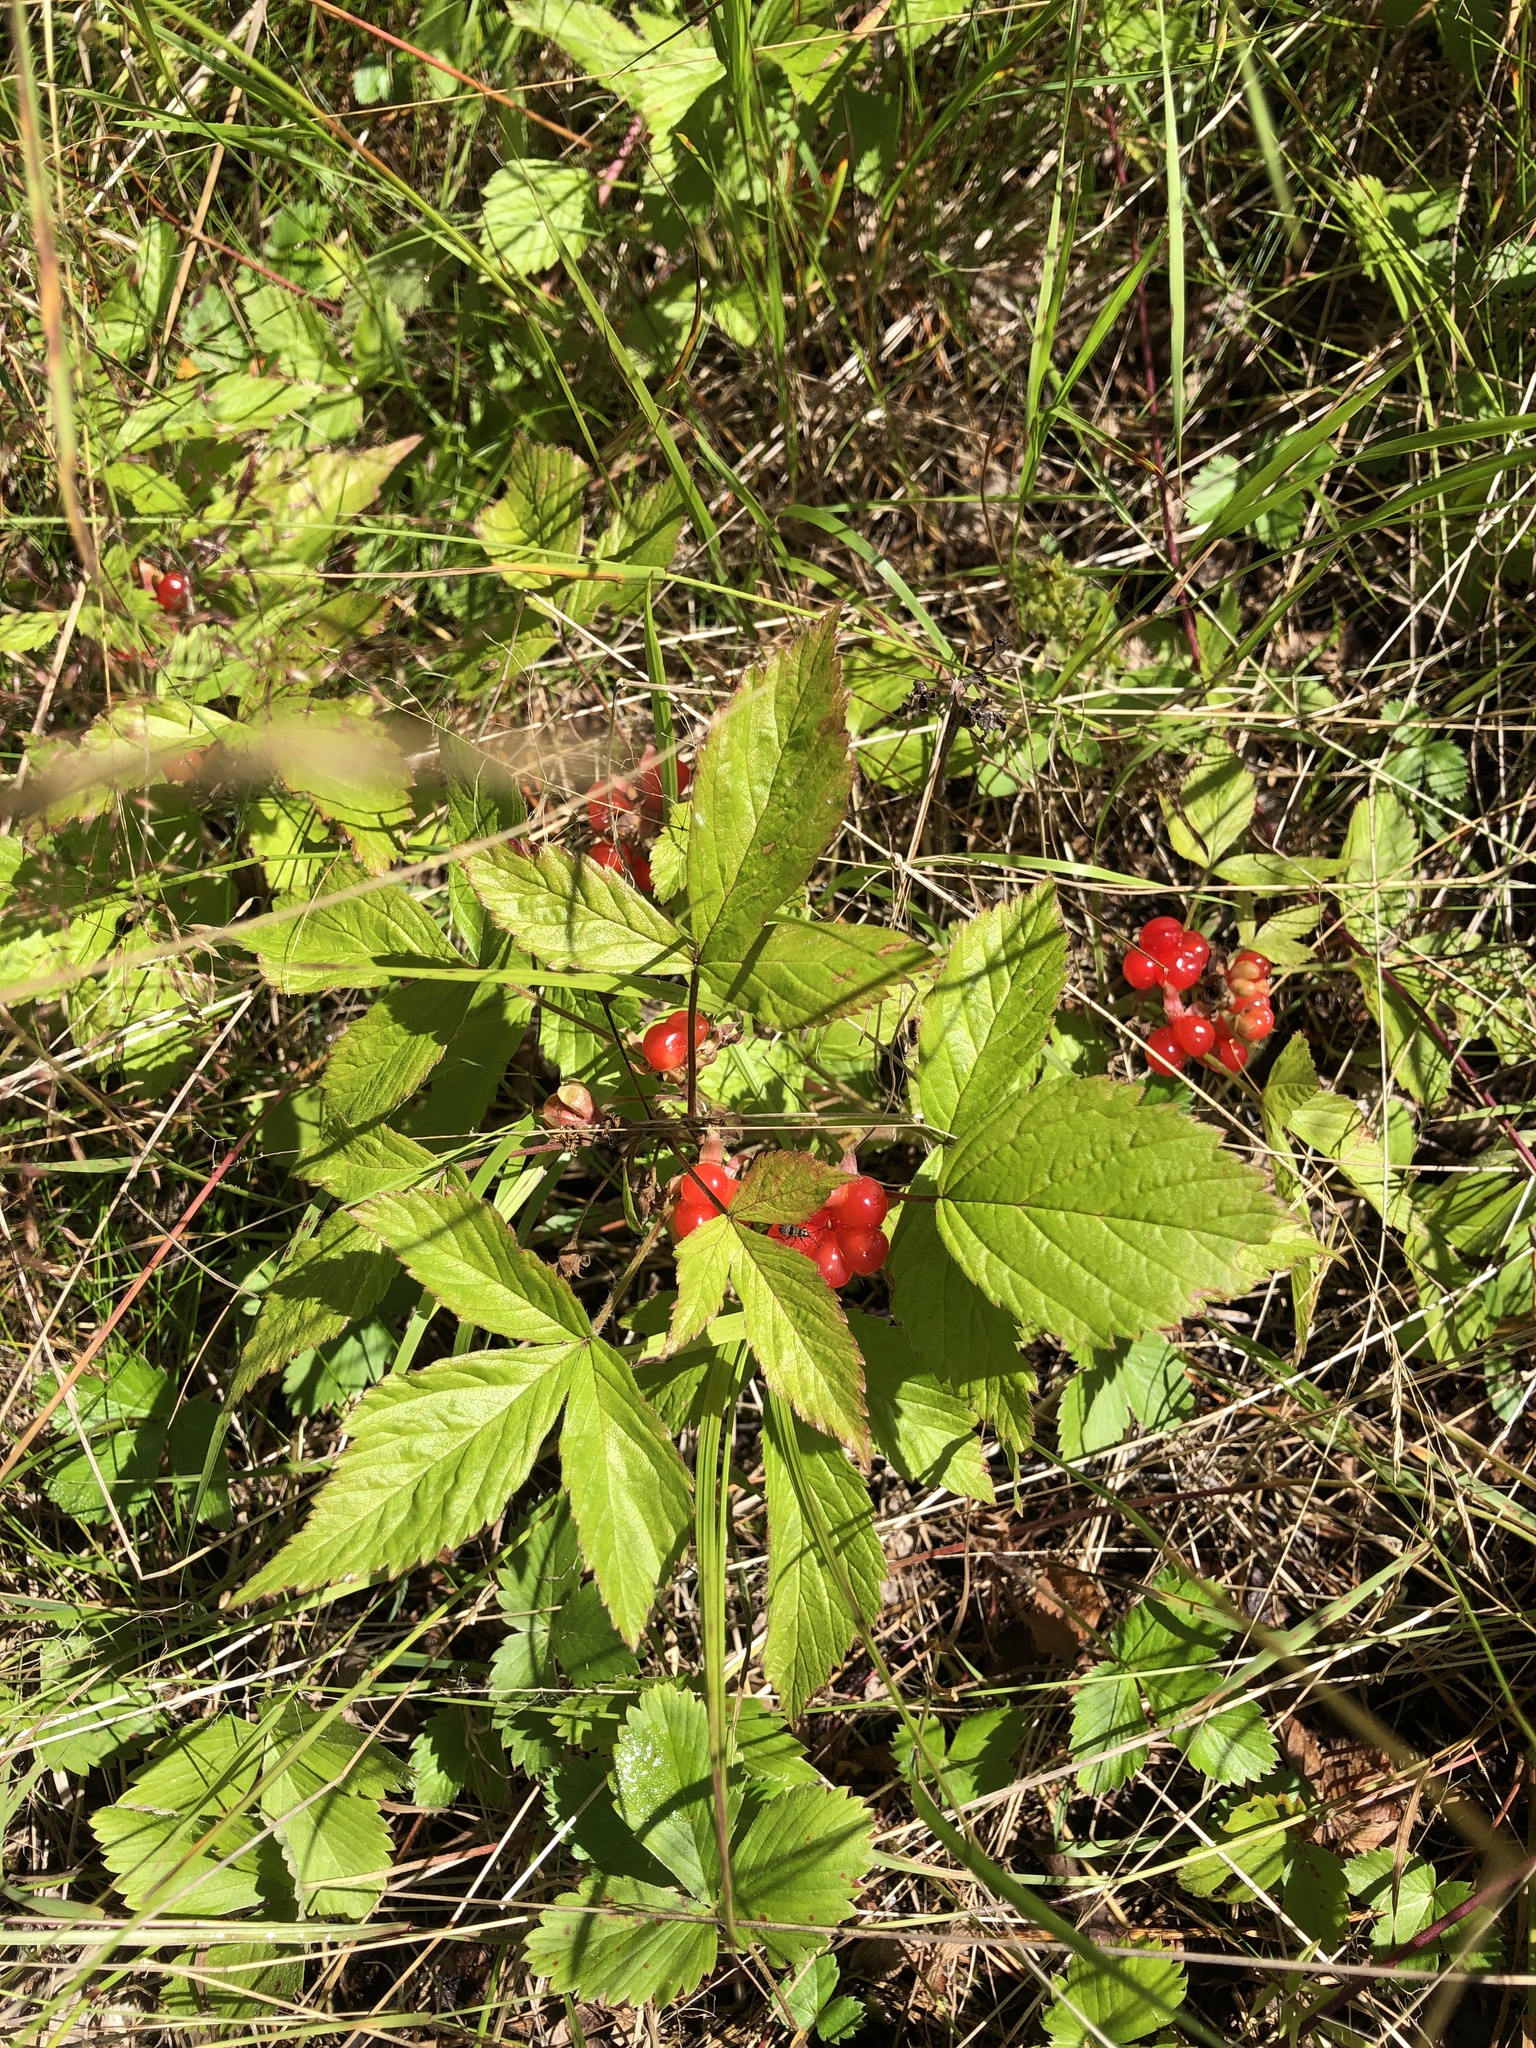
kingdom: Plantae
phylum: Tracheophyta
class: Magnoliopsida
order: Rosales
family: Rosaceae
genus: Rubus
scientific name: Rubus saxatilis
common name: Stone bramble
